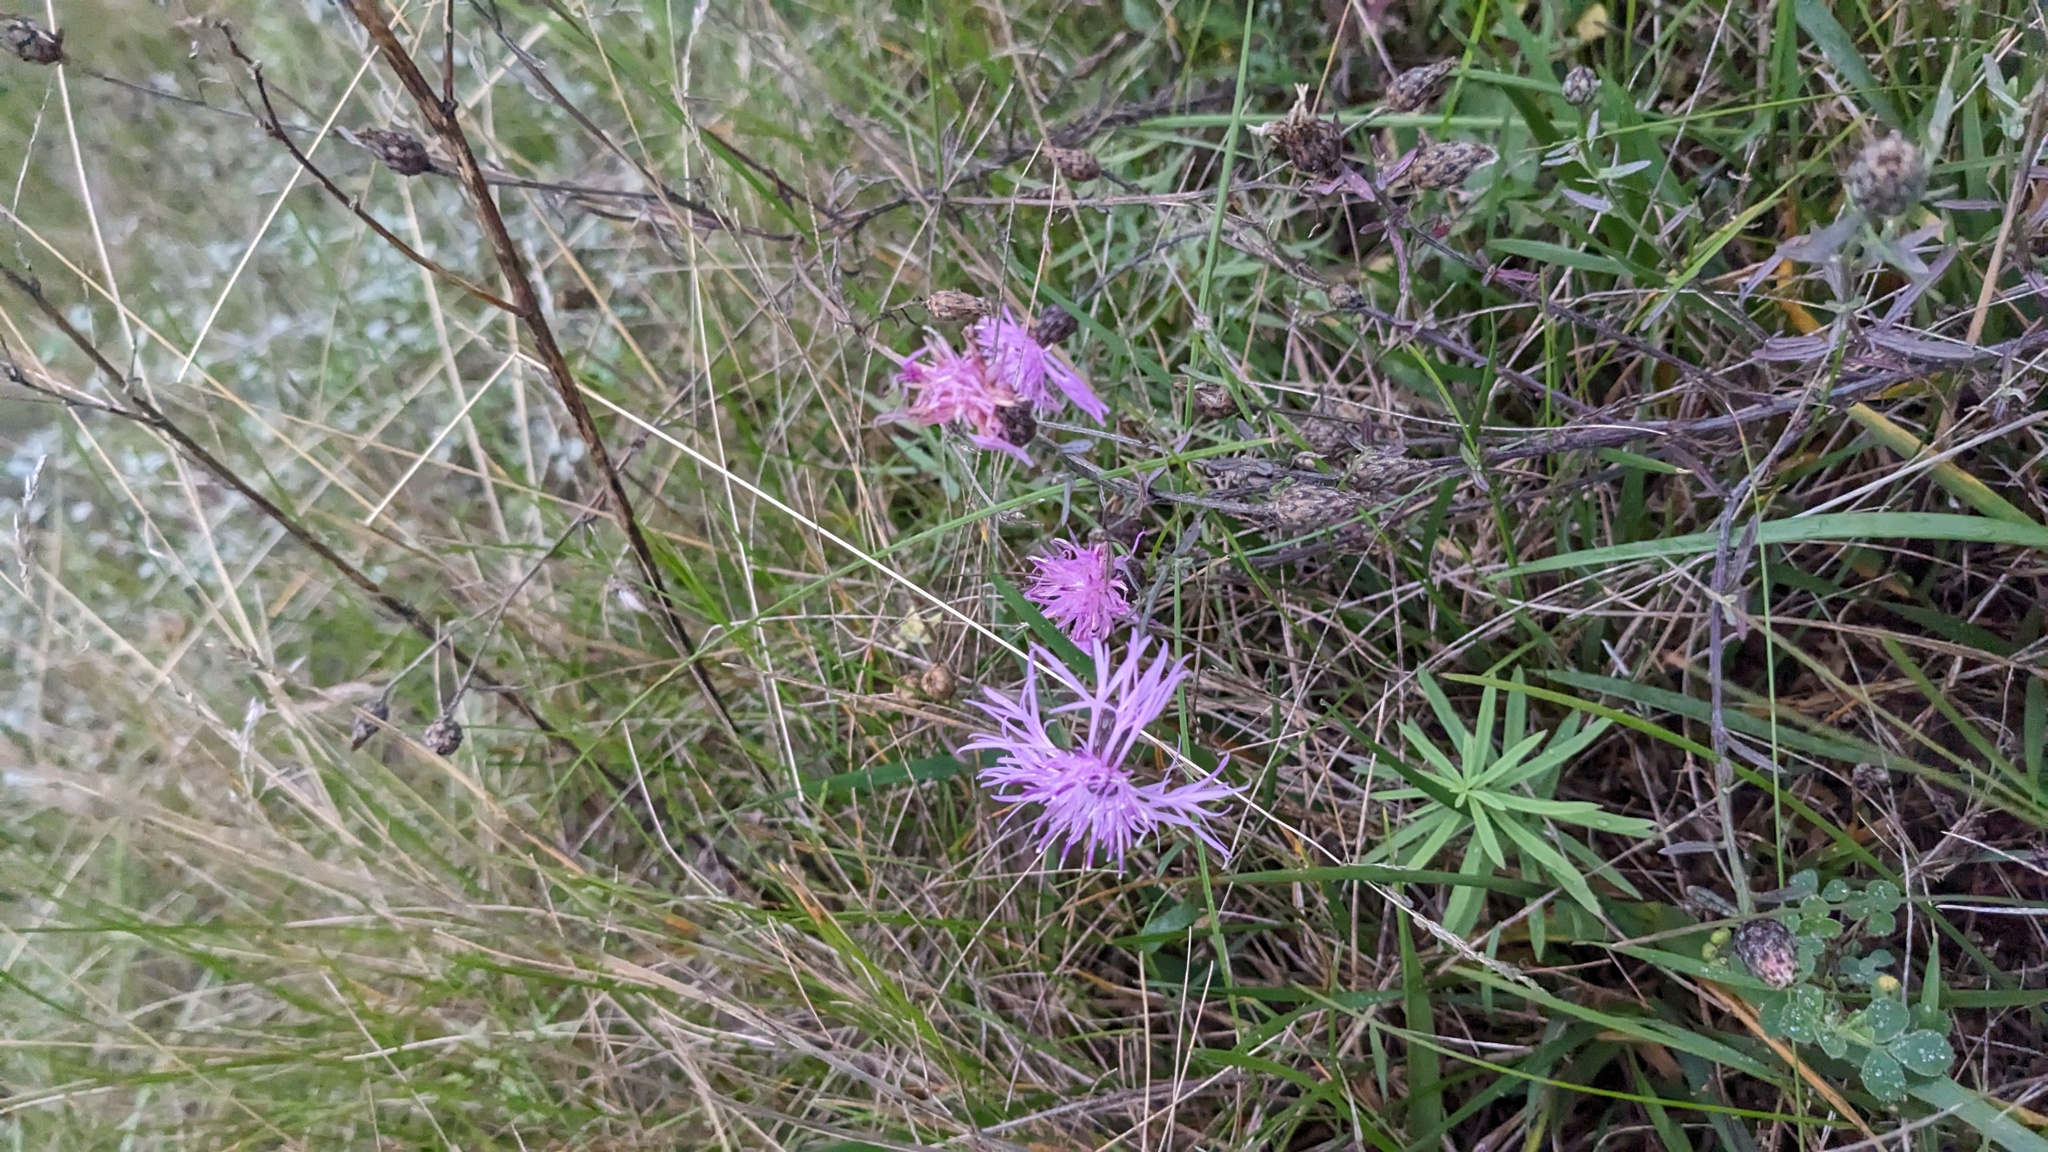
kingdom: Plantae
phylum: Tracheophyta
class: Magnoliopsida
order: Asterales
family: Asteraceae
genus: Centaurea
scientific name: Centaurea stoebe
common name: Spotted knapweed
